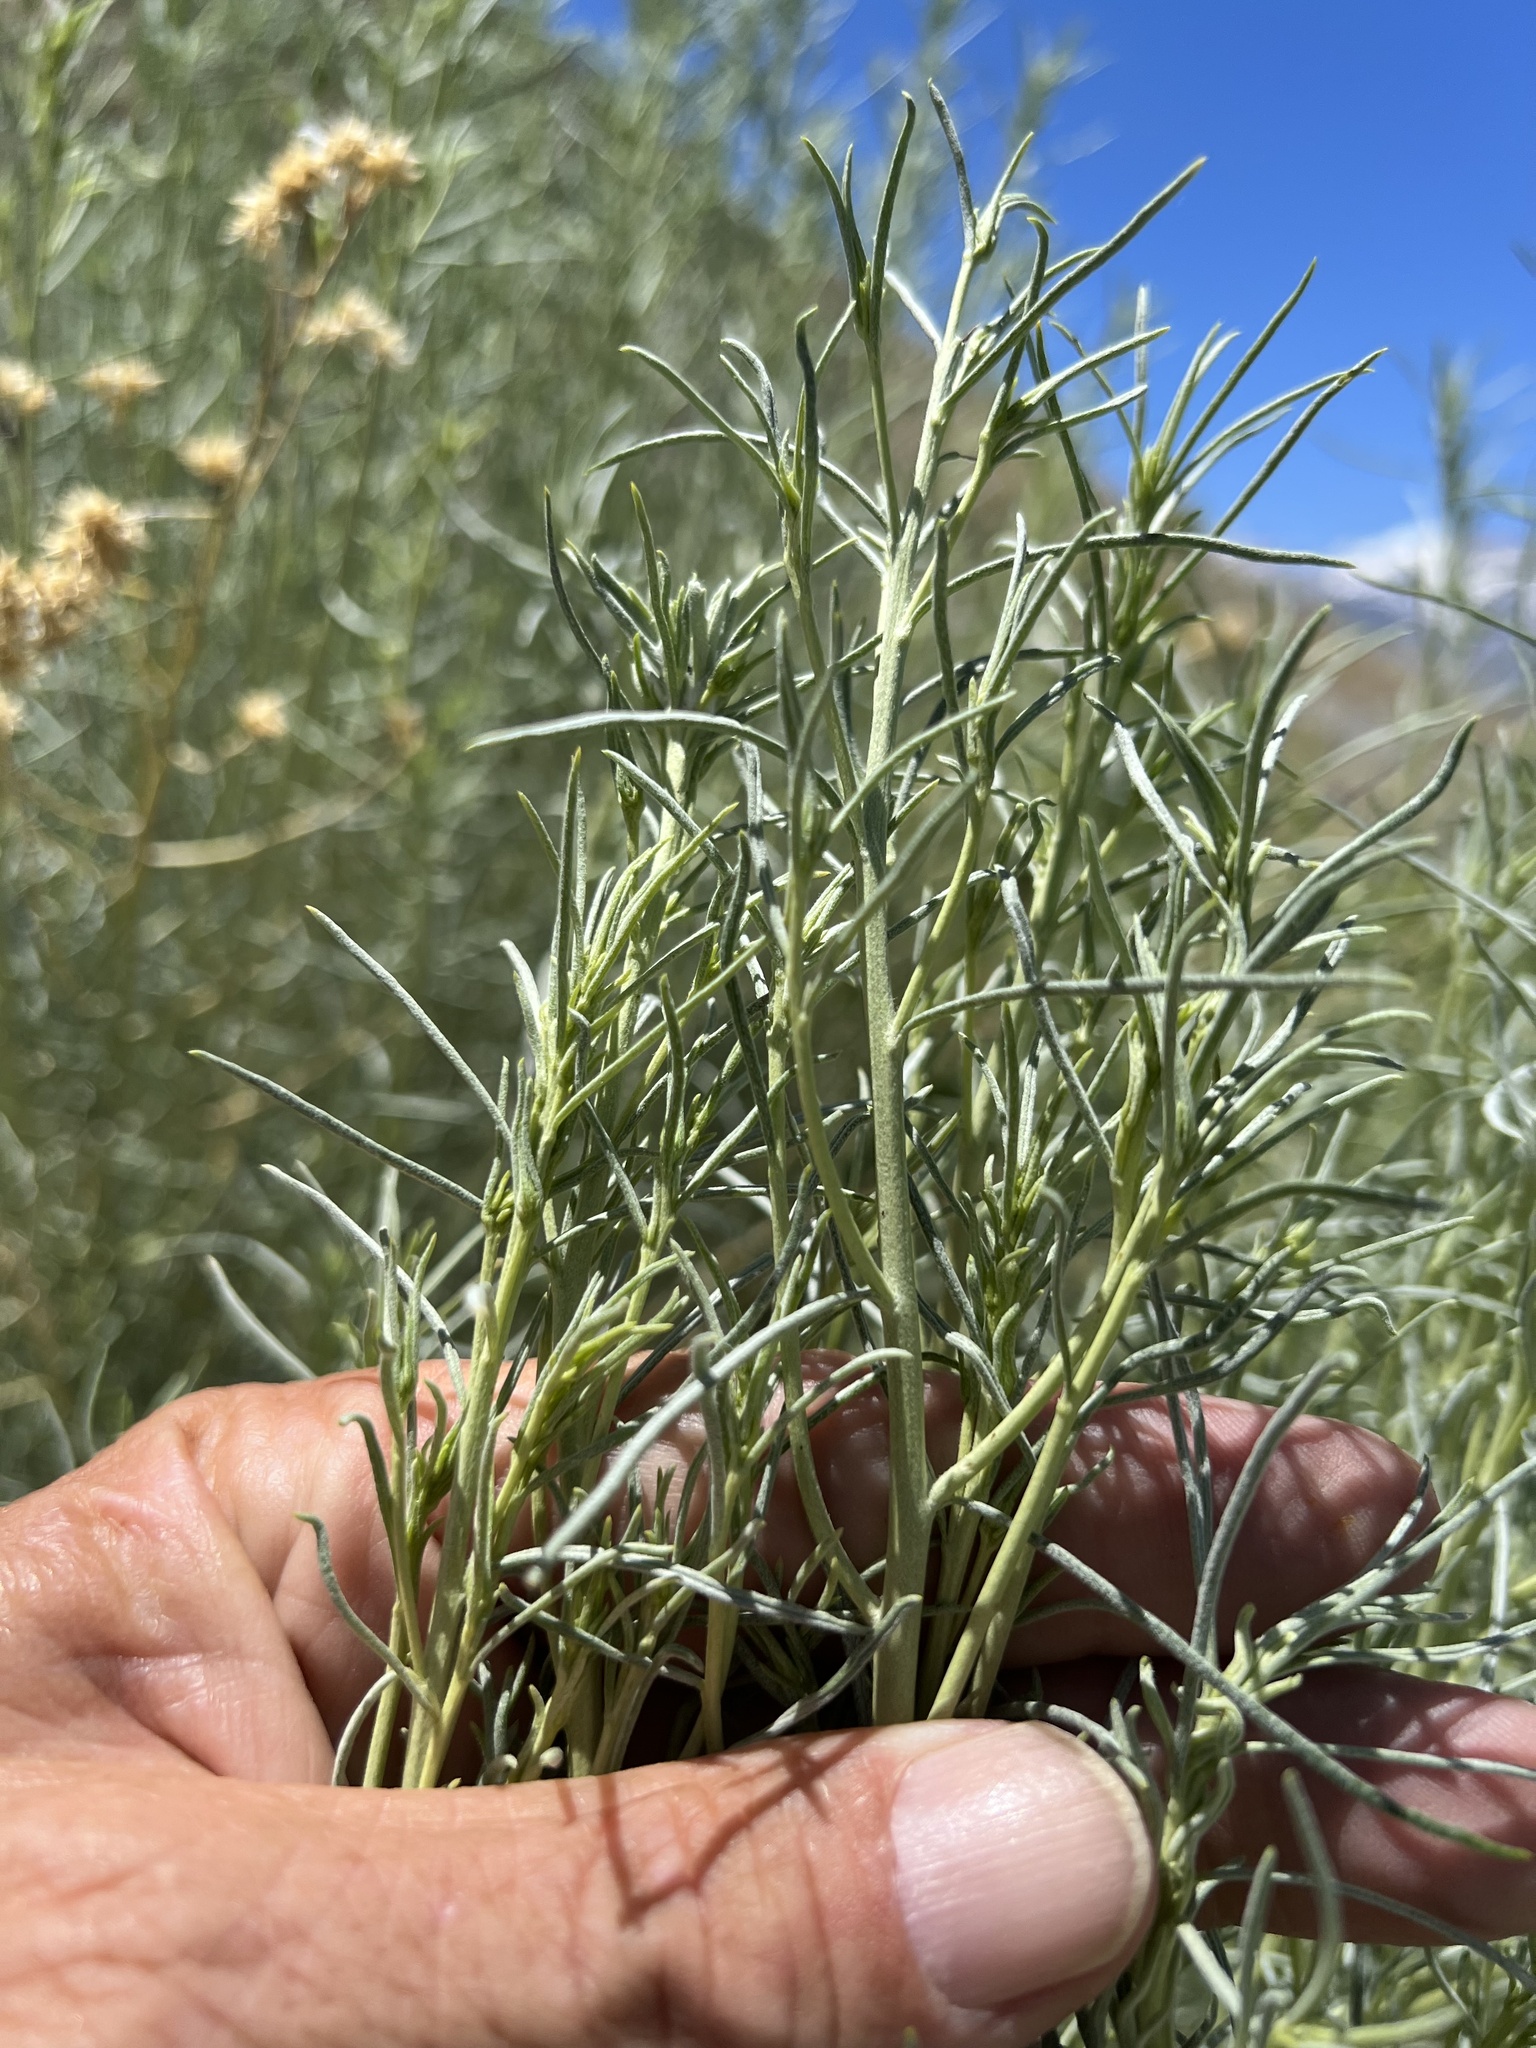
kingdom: Plantae
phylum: Tracheophyta
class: Magnoliopsida
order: Asterales
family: Asteraceae
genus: Ericameria
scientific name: Ericameria nauseosa
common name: Rubber rabbitbrush
